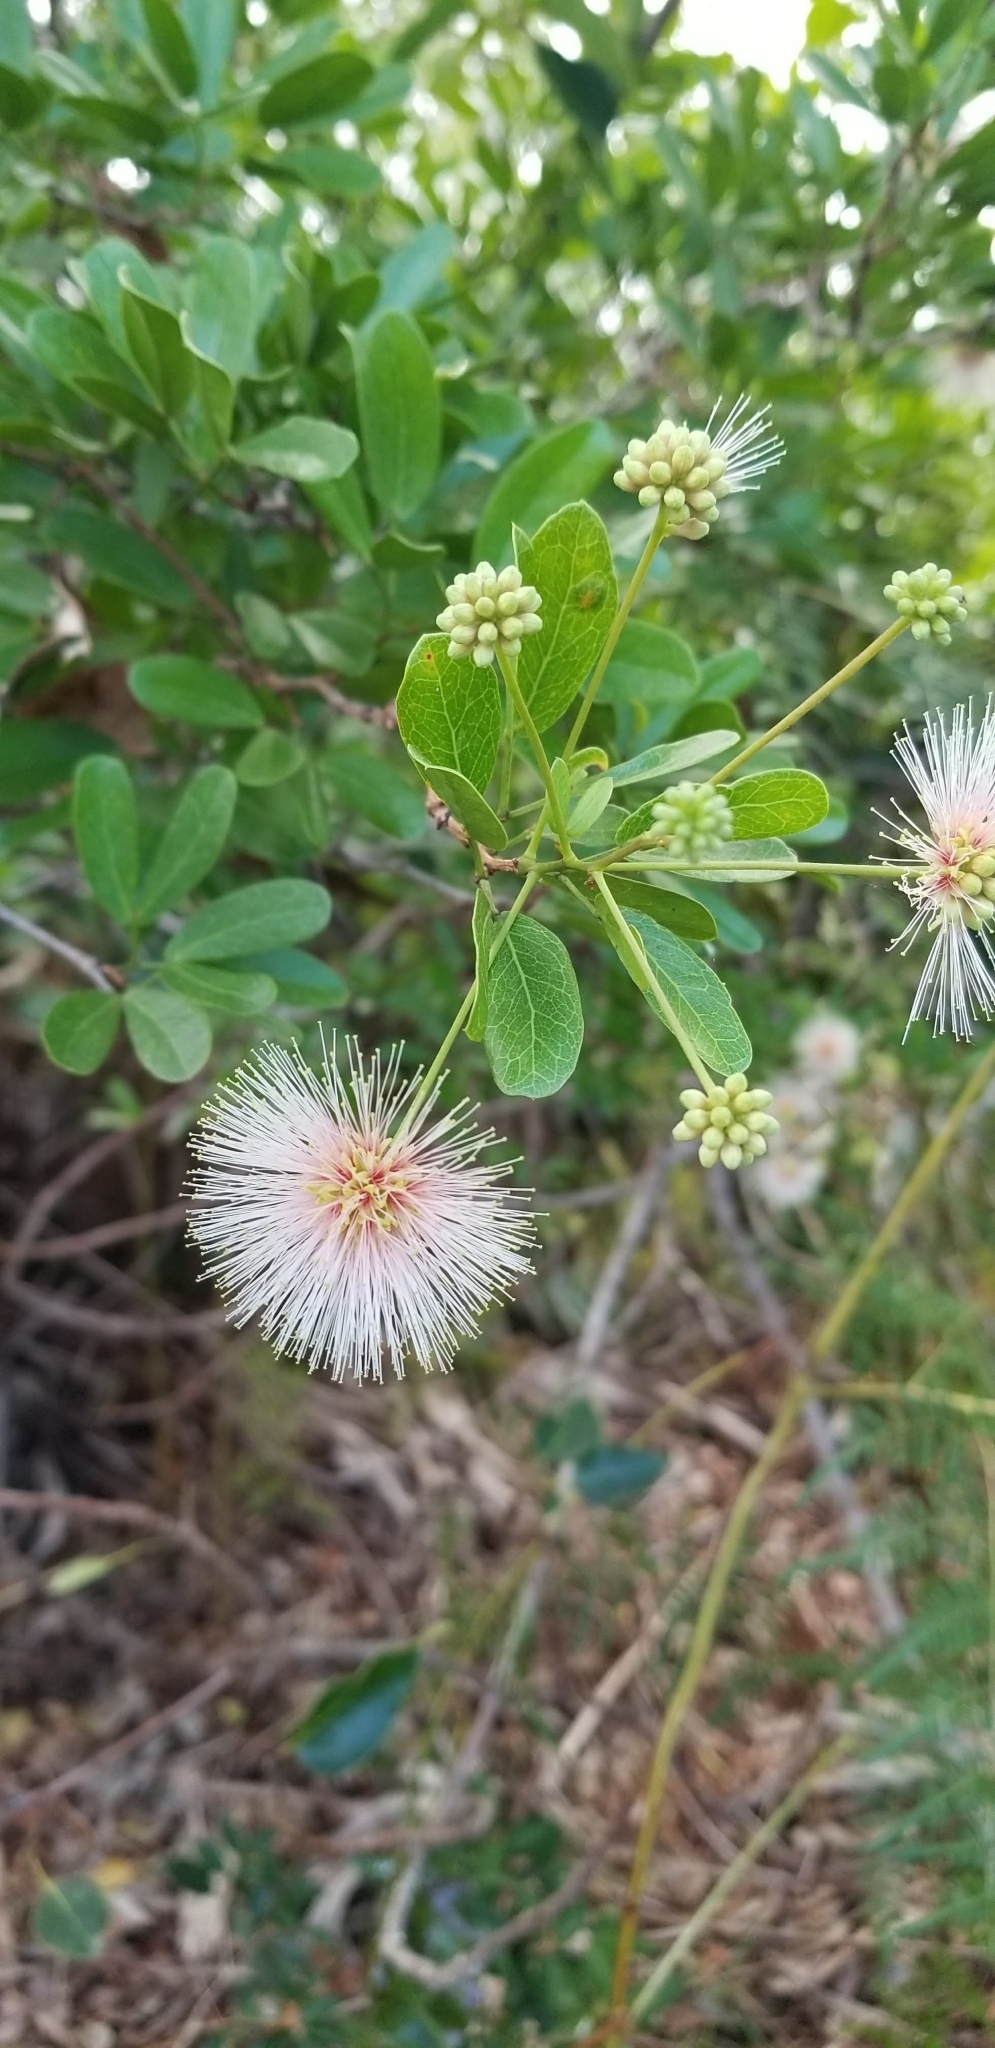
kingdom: Plantae
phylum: Tracheophyta
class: Magnoliopsida
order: Fabales
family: Fabaceae
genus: Pithecellobium
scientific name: Pithecellobium keyense
